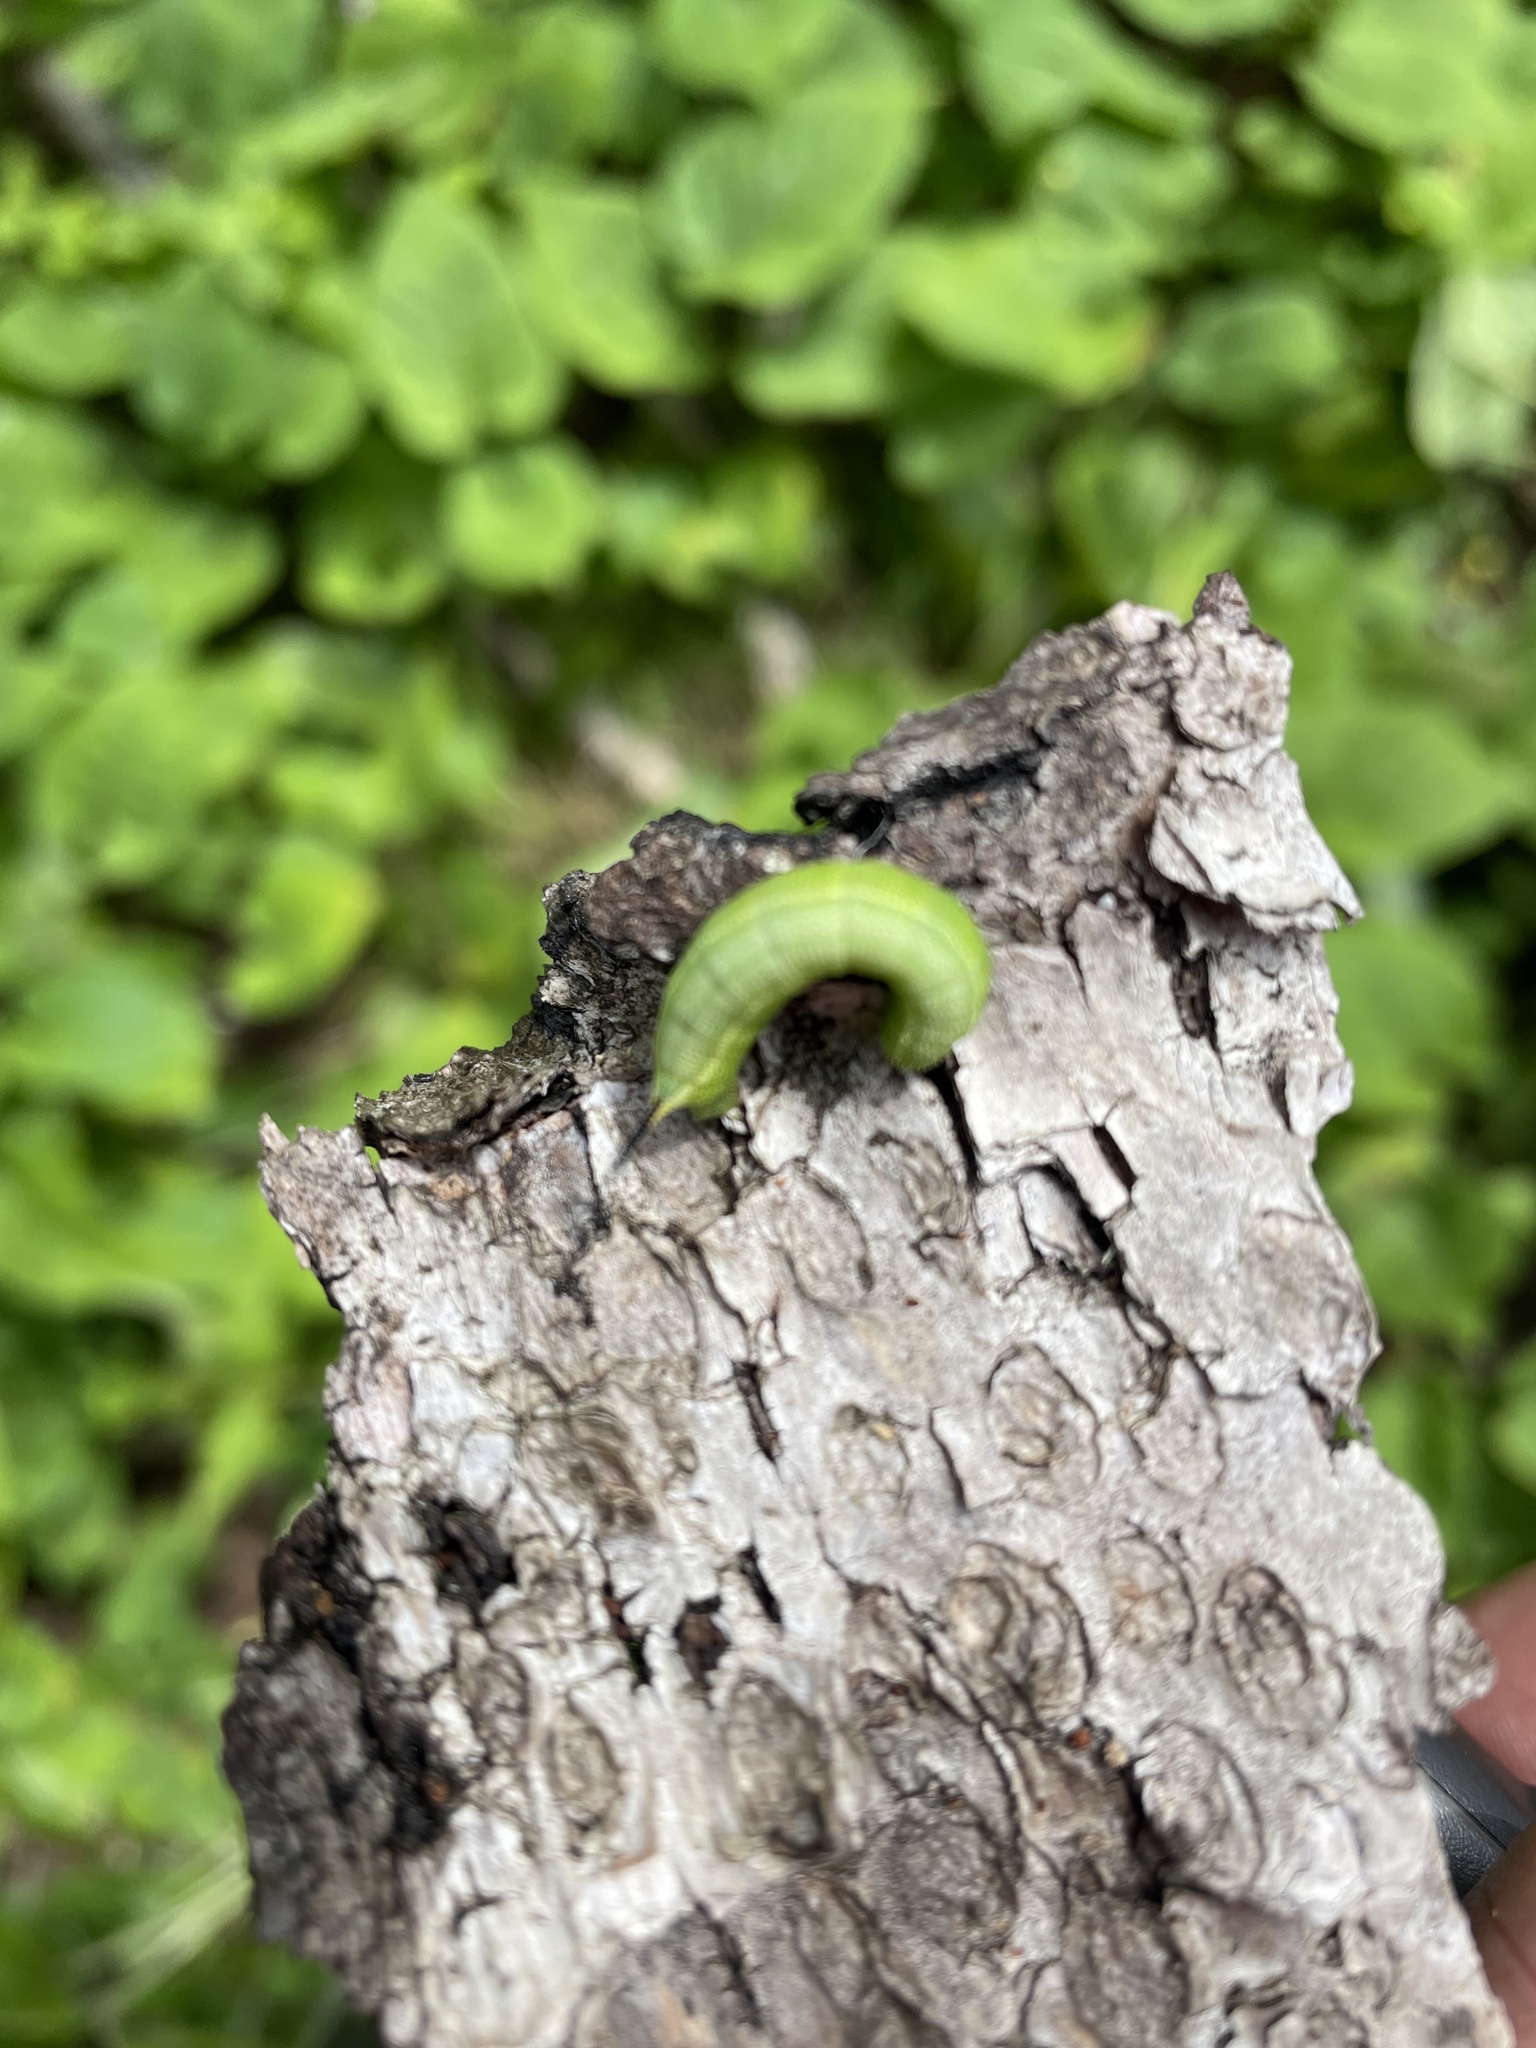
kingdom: Animalia
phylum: Arthropoda
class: Insecta
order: Lepidoptera
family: Sphingidae
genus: Hemaris
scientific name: Hemaris diffinis
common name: Bumblebee moth
